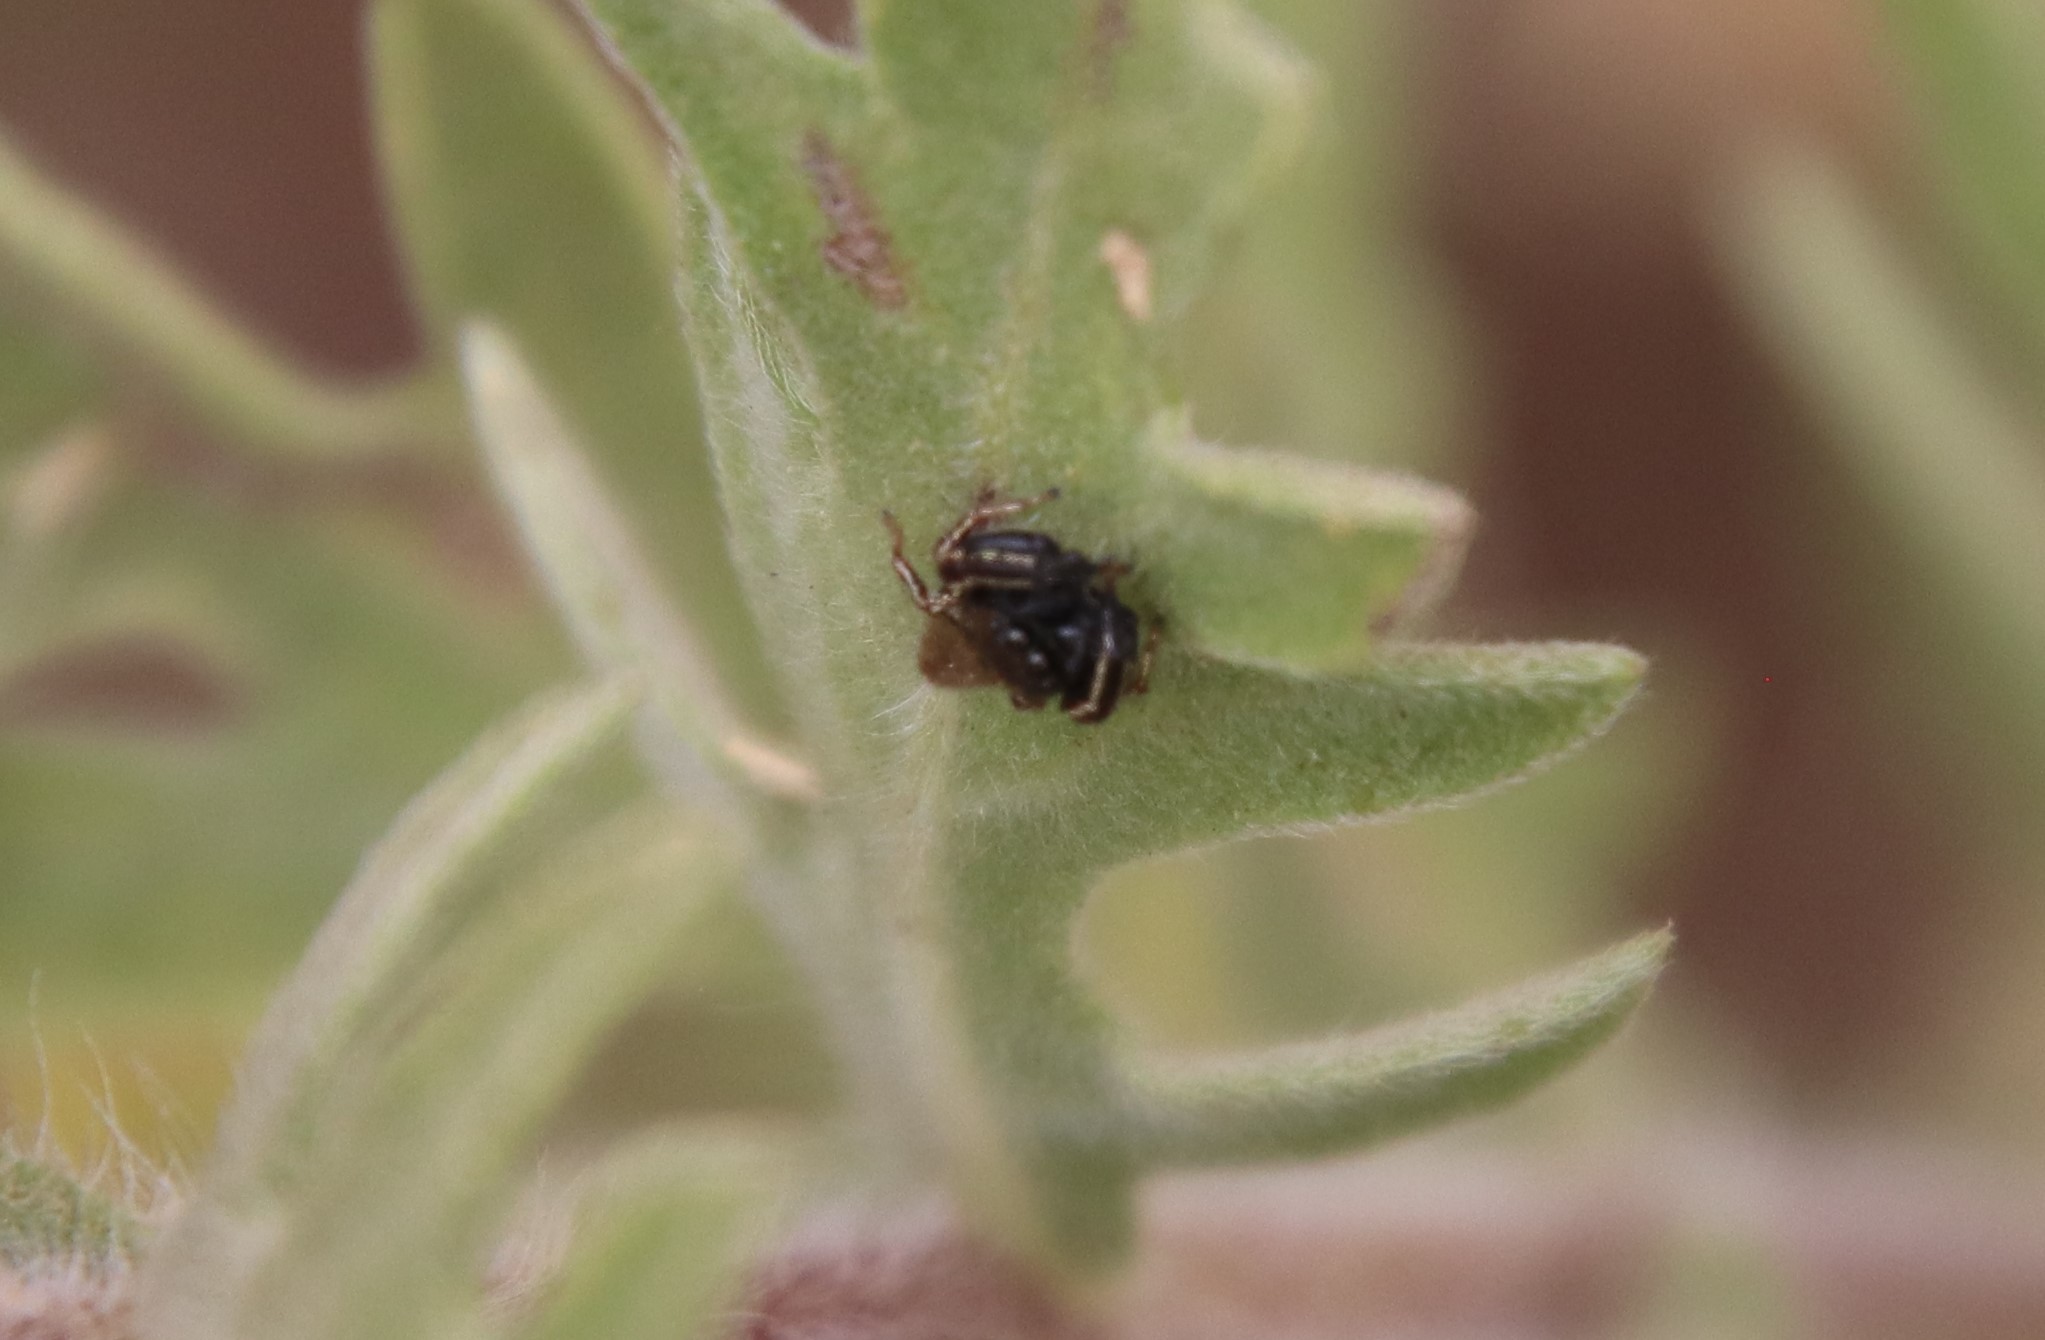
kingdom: Animalia
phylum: Arthropoda
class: Arachnida
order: Araneae
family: Salticidae
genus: Sassacus
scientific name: Sassacus vitis
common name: Jumping spiders
